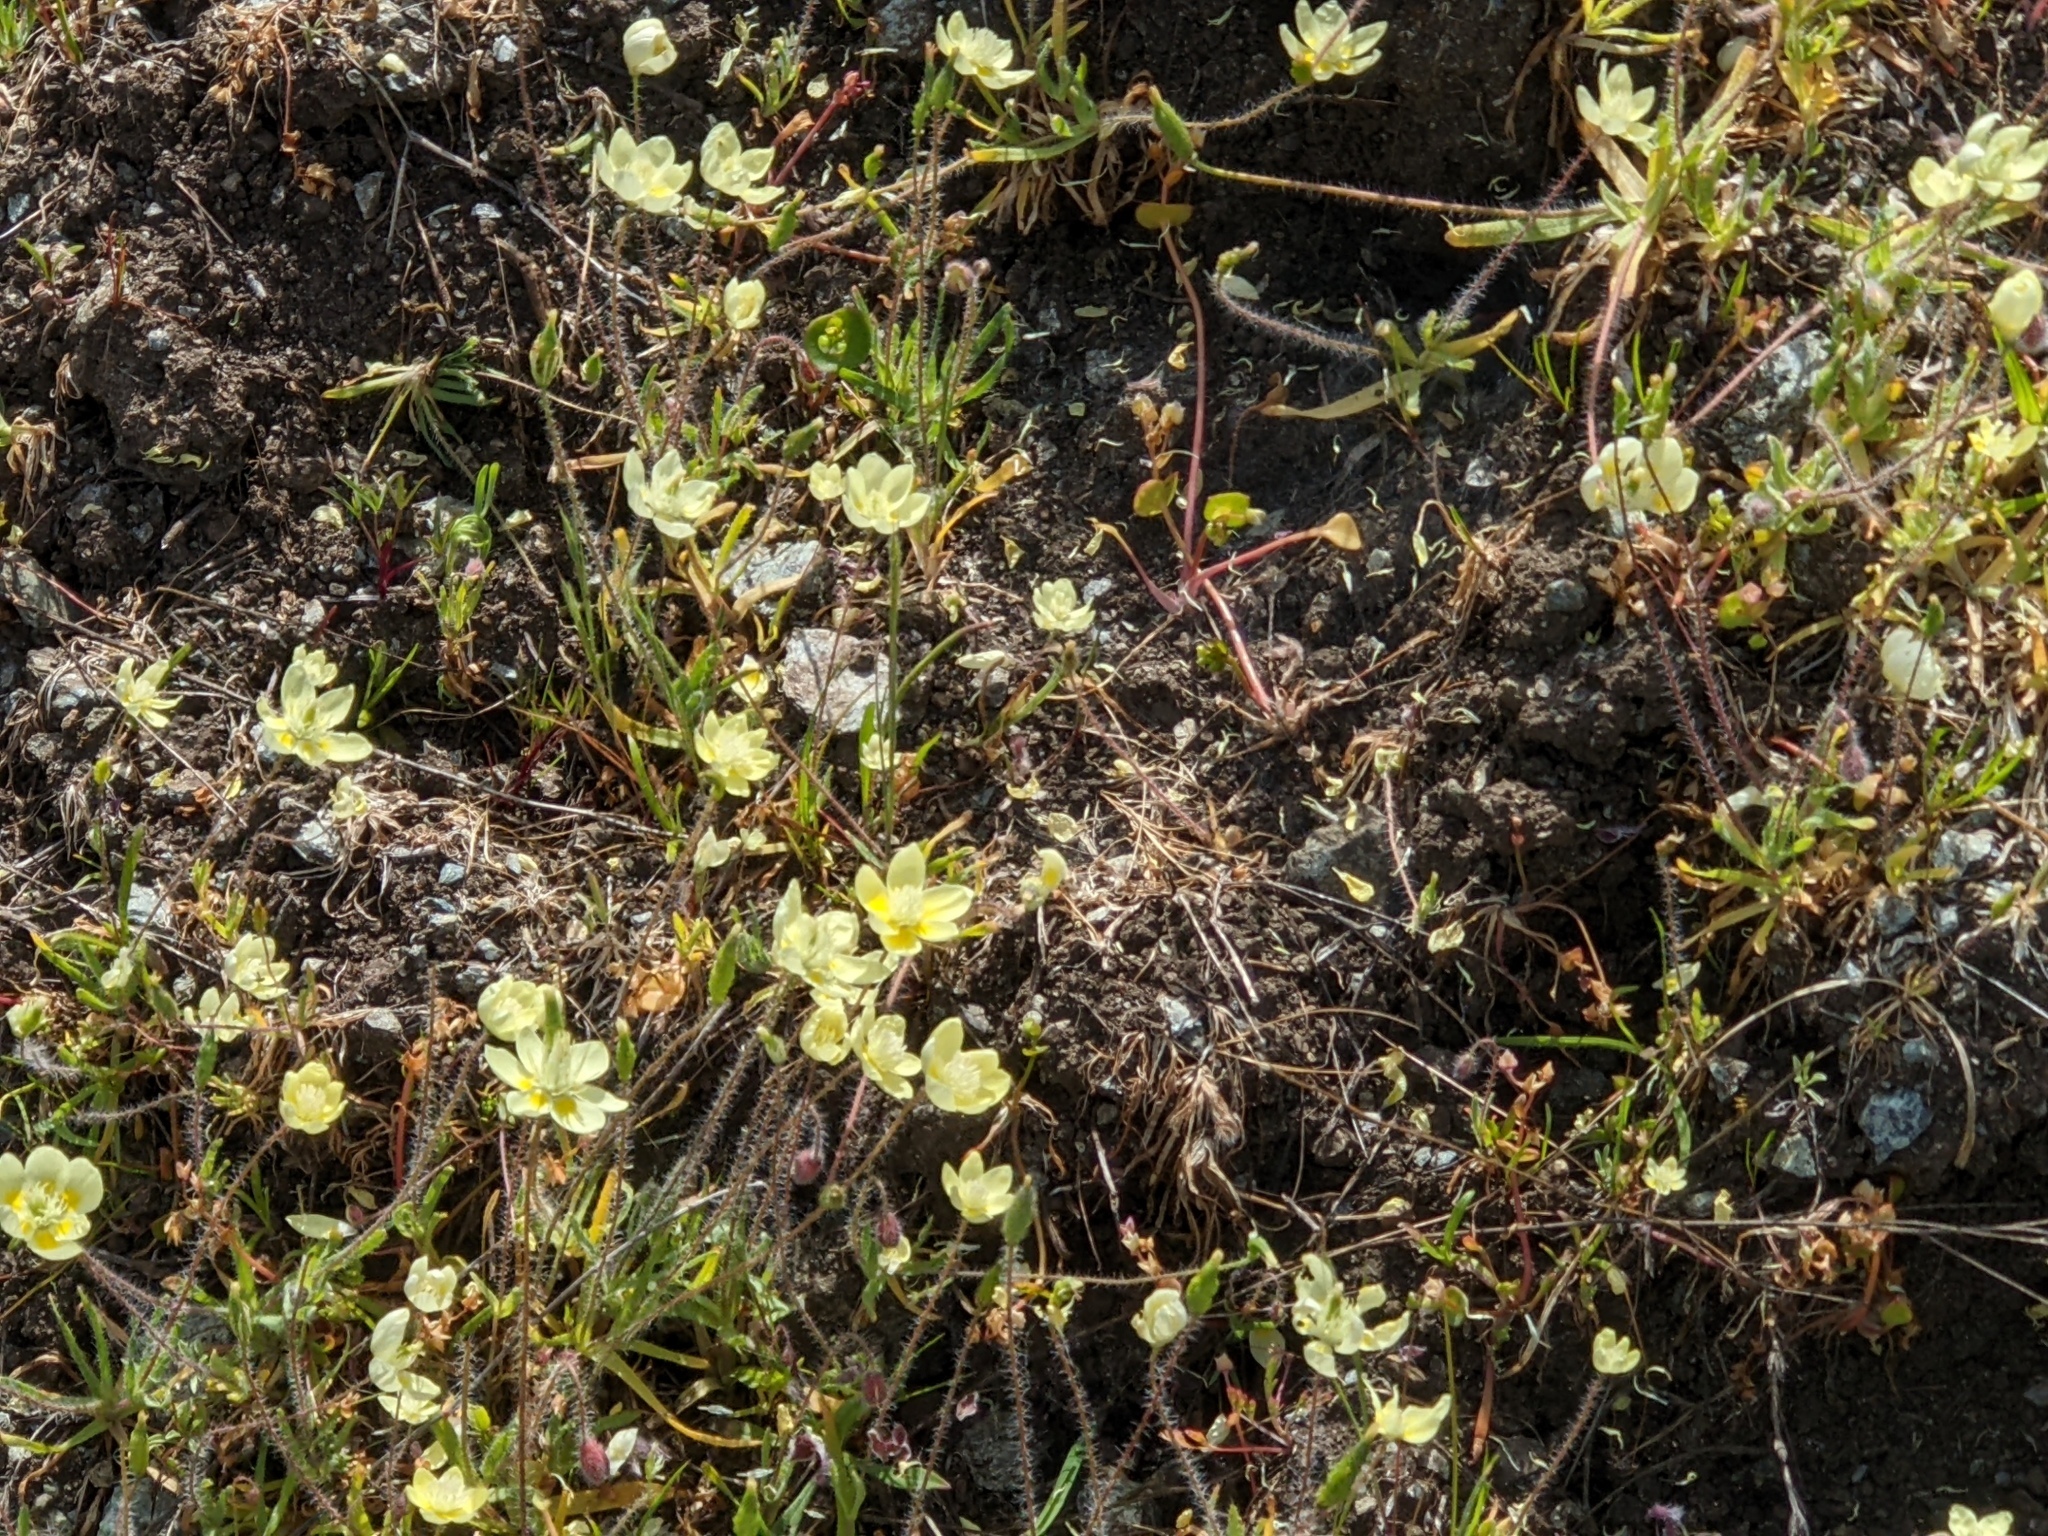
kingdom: Plantae
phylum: Tracheophyta
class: Magnoliopsida
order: Ranunculales
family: Papaveraceae
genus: Platystemon
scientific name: Platystemon californicus
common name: Cream-cups
